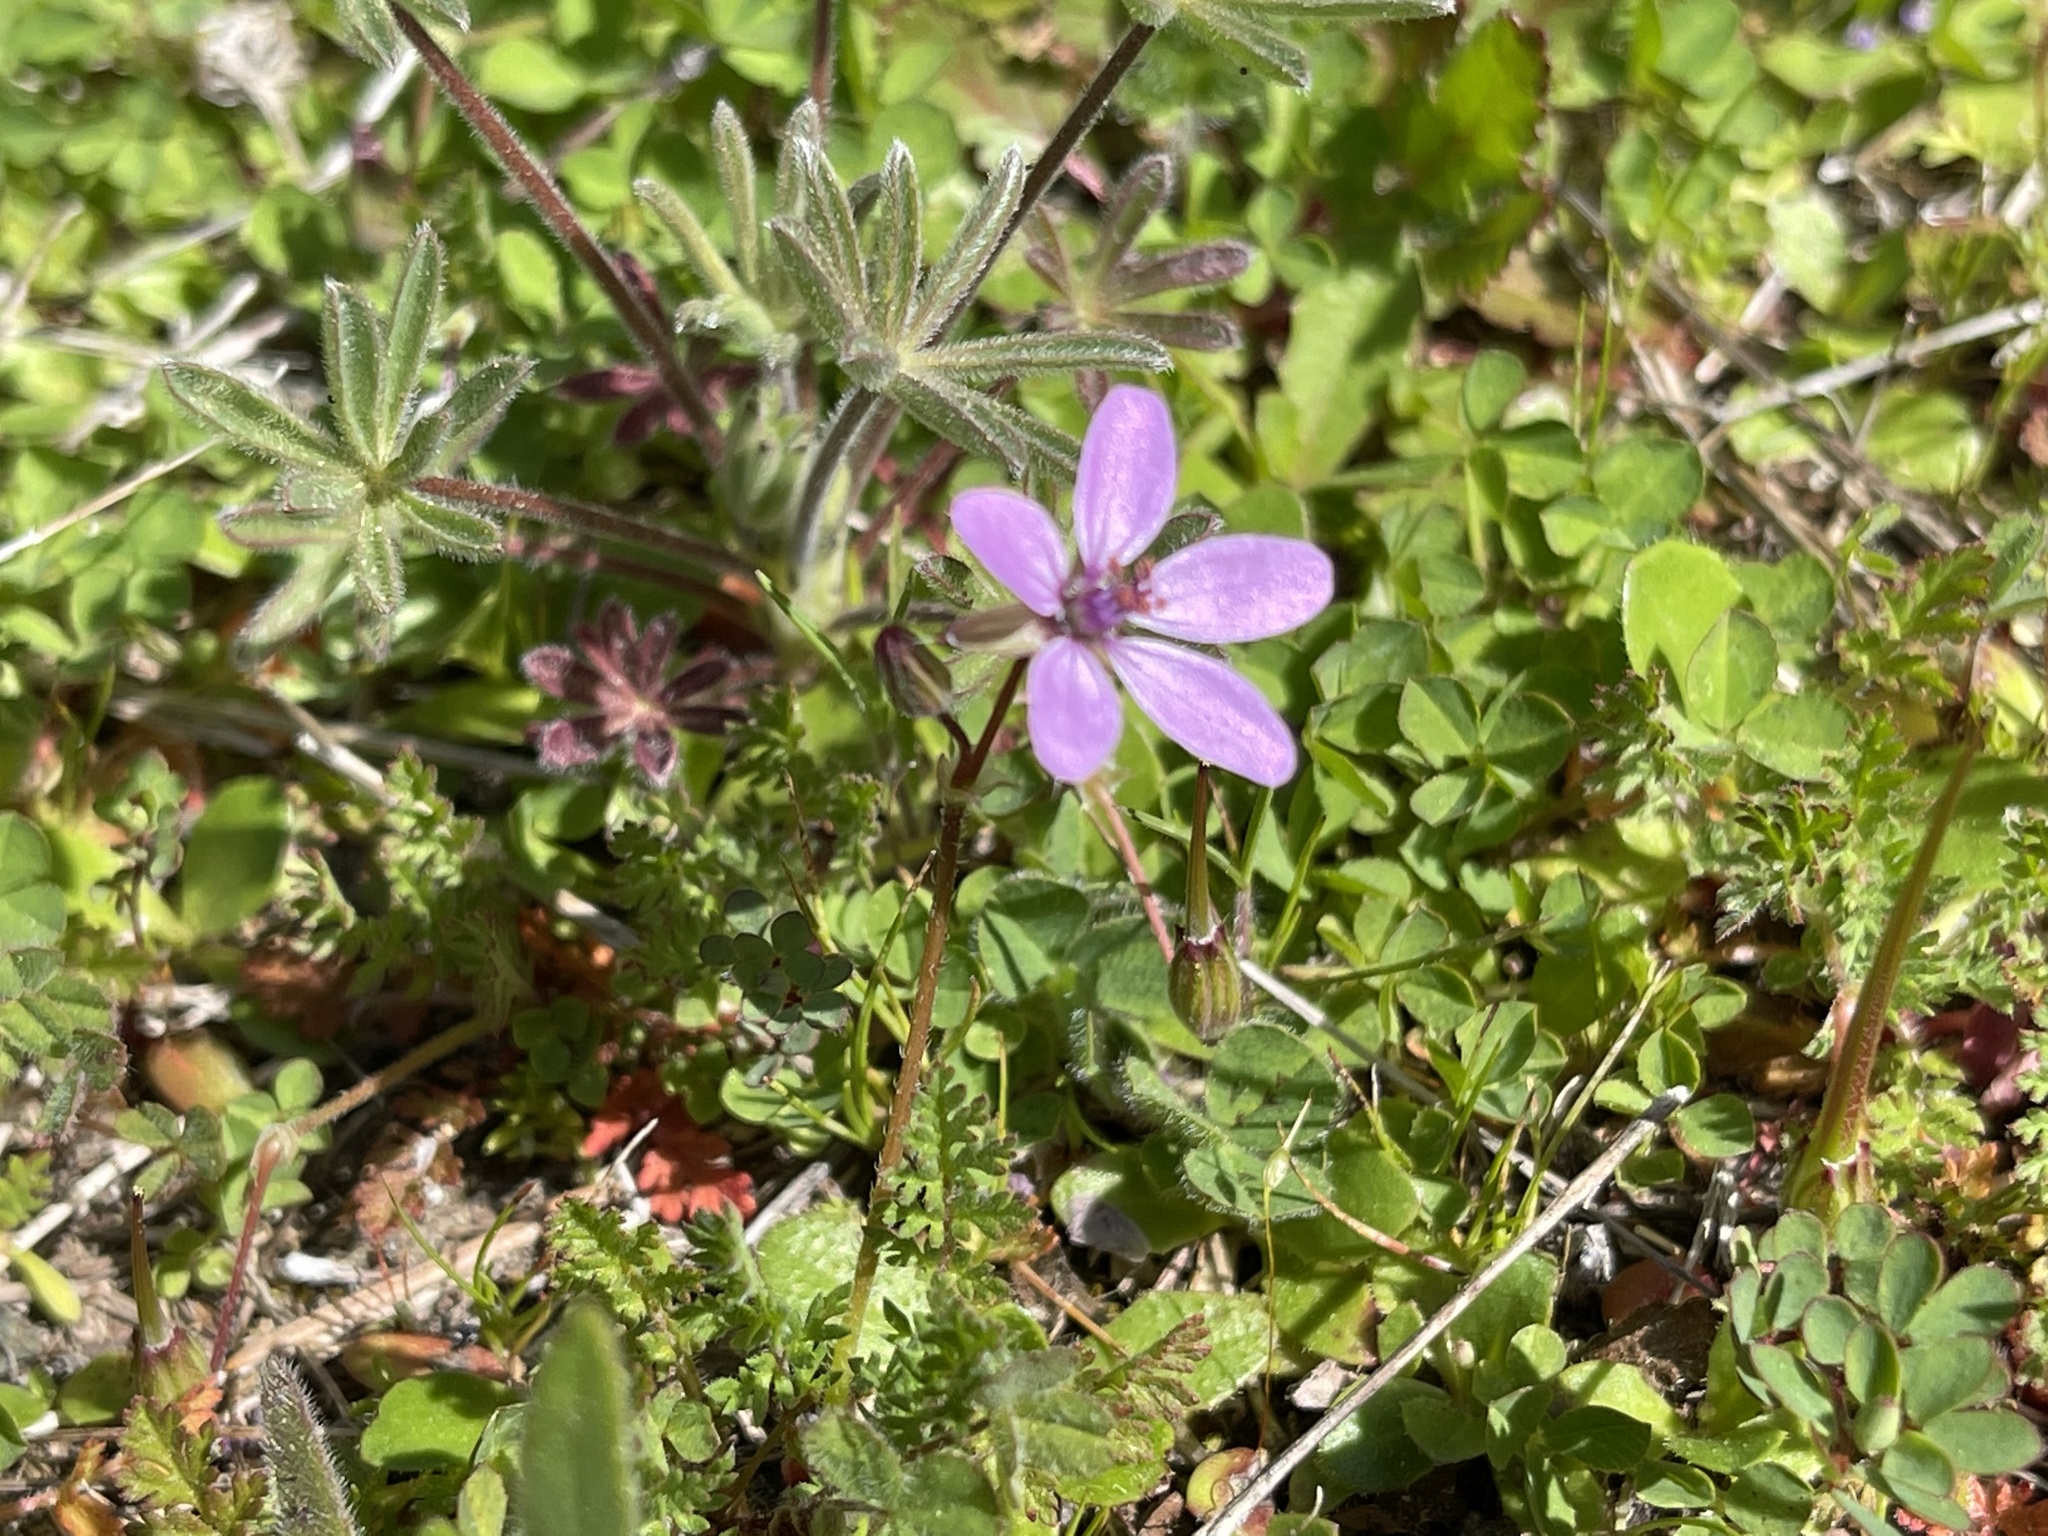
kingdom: Plantae
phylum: Tracheophyta
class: Magnoliopsida
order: Geraniales
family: Geraniaceae
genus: Erodium
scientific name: Erodium cicutarium
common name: Common stork's-bill
